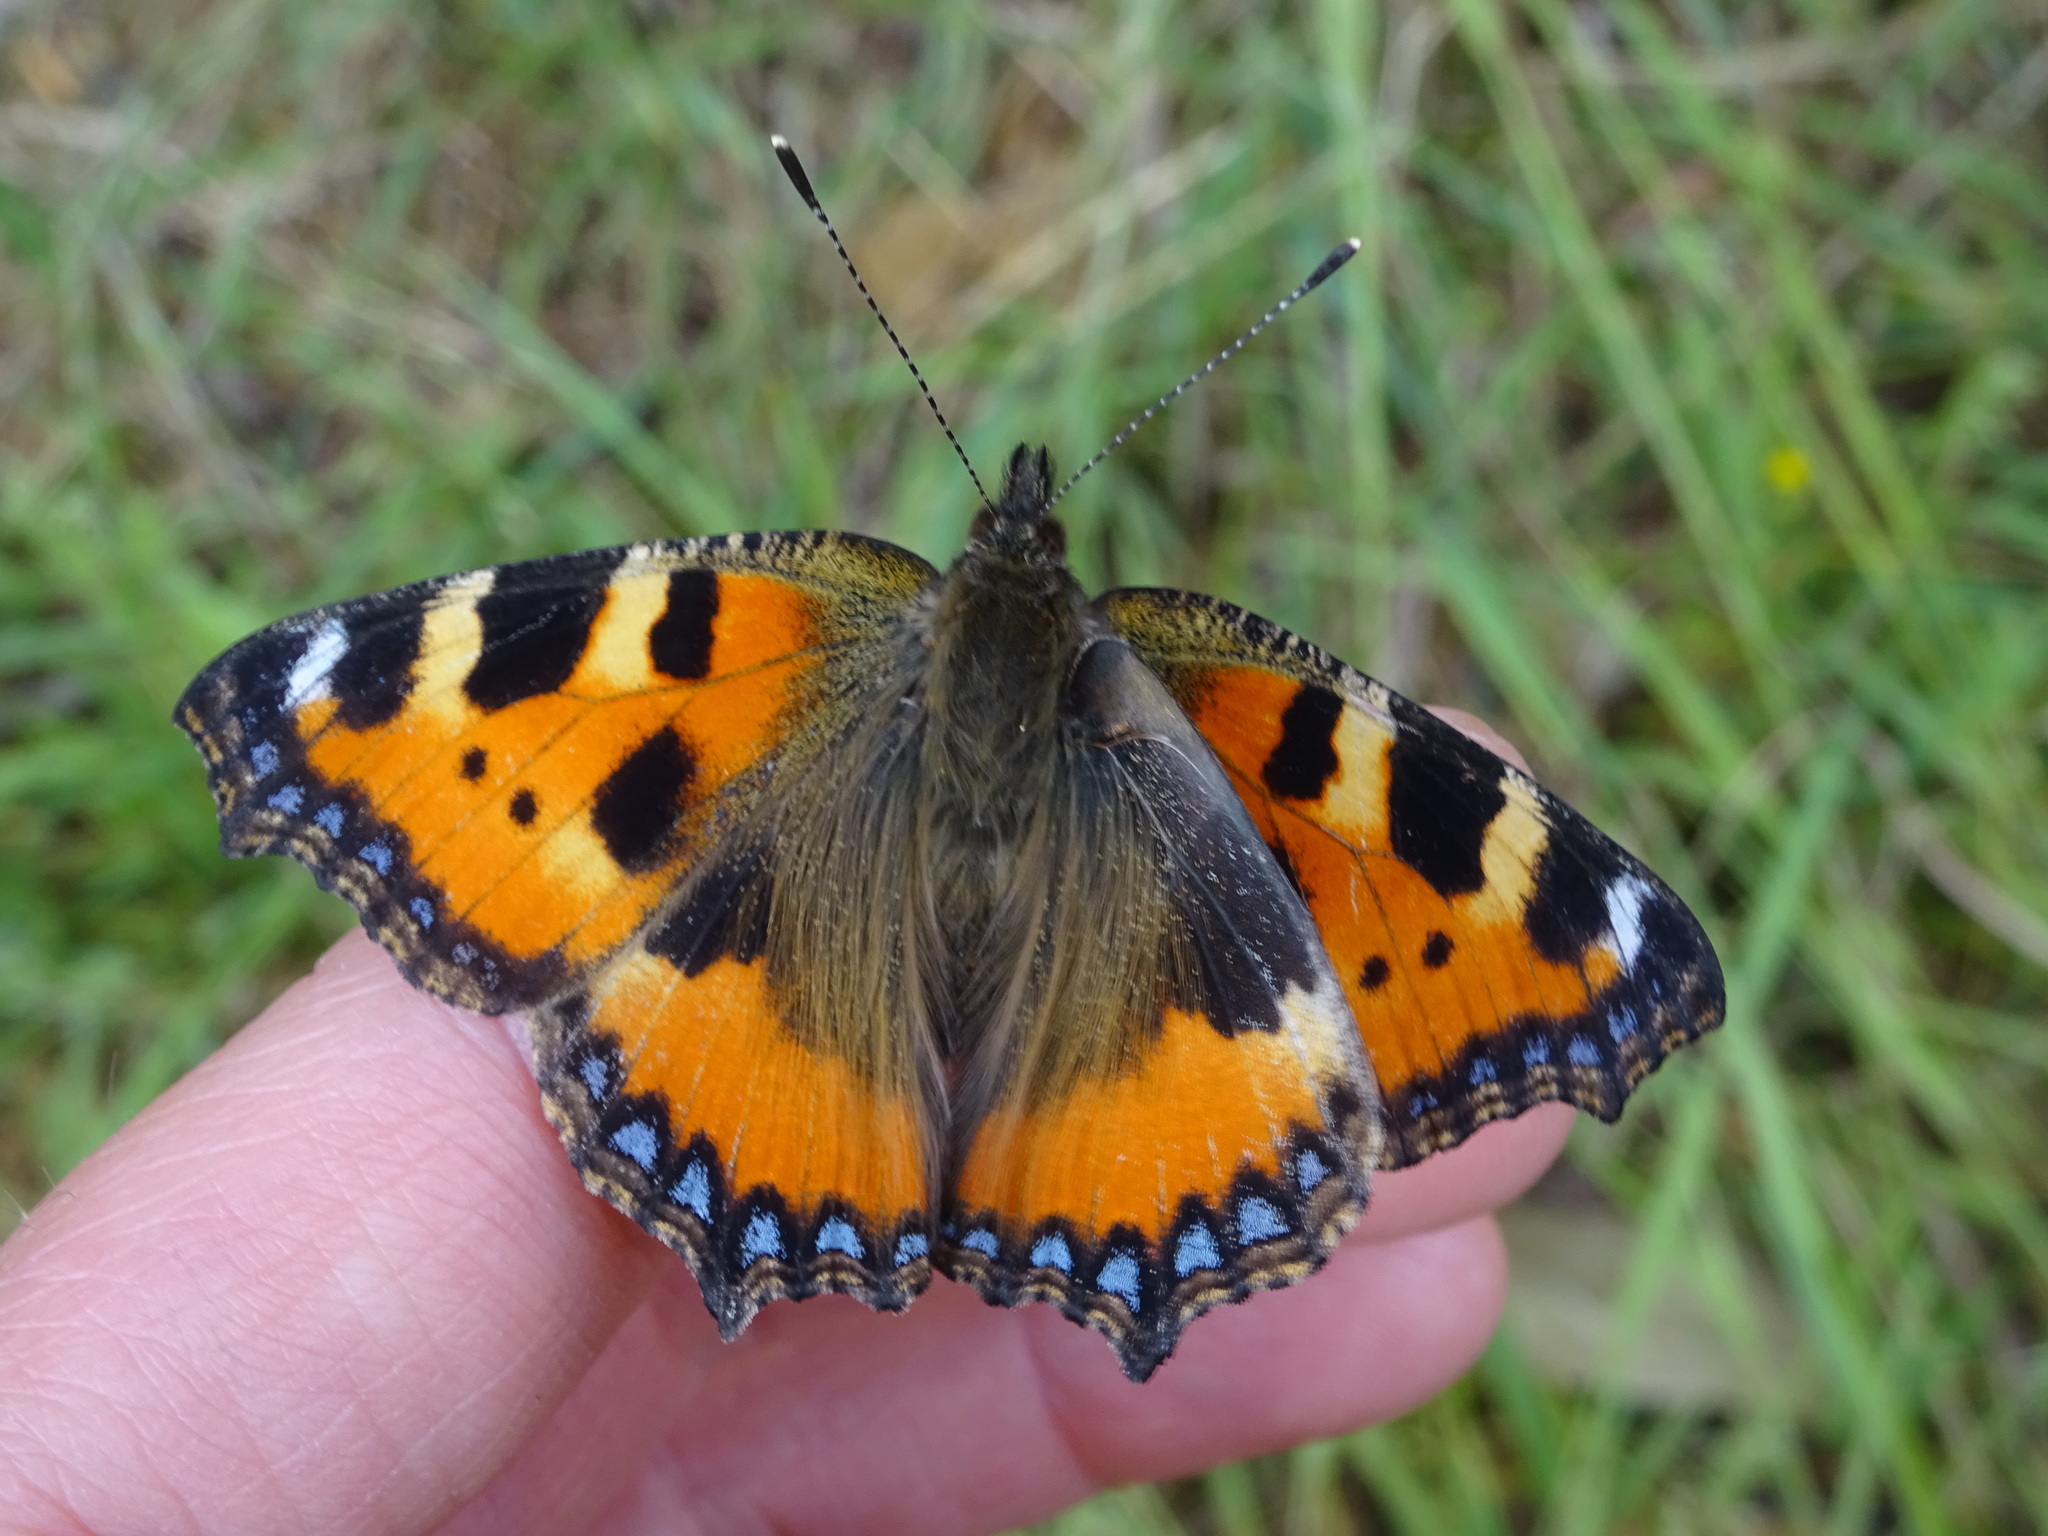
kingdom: Animalia
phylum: Arthropoda
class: Insecta
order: Lepidoptera
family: Nymphalidae
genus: Aglais
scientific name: Aglais urticae
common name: Small tortoiseshell
